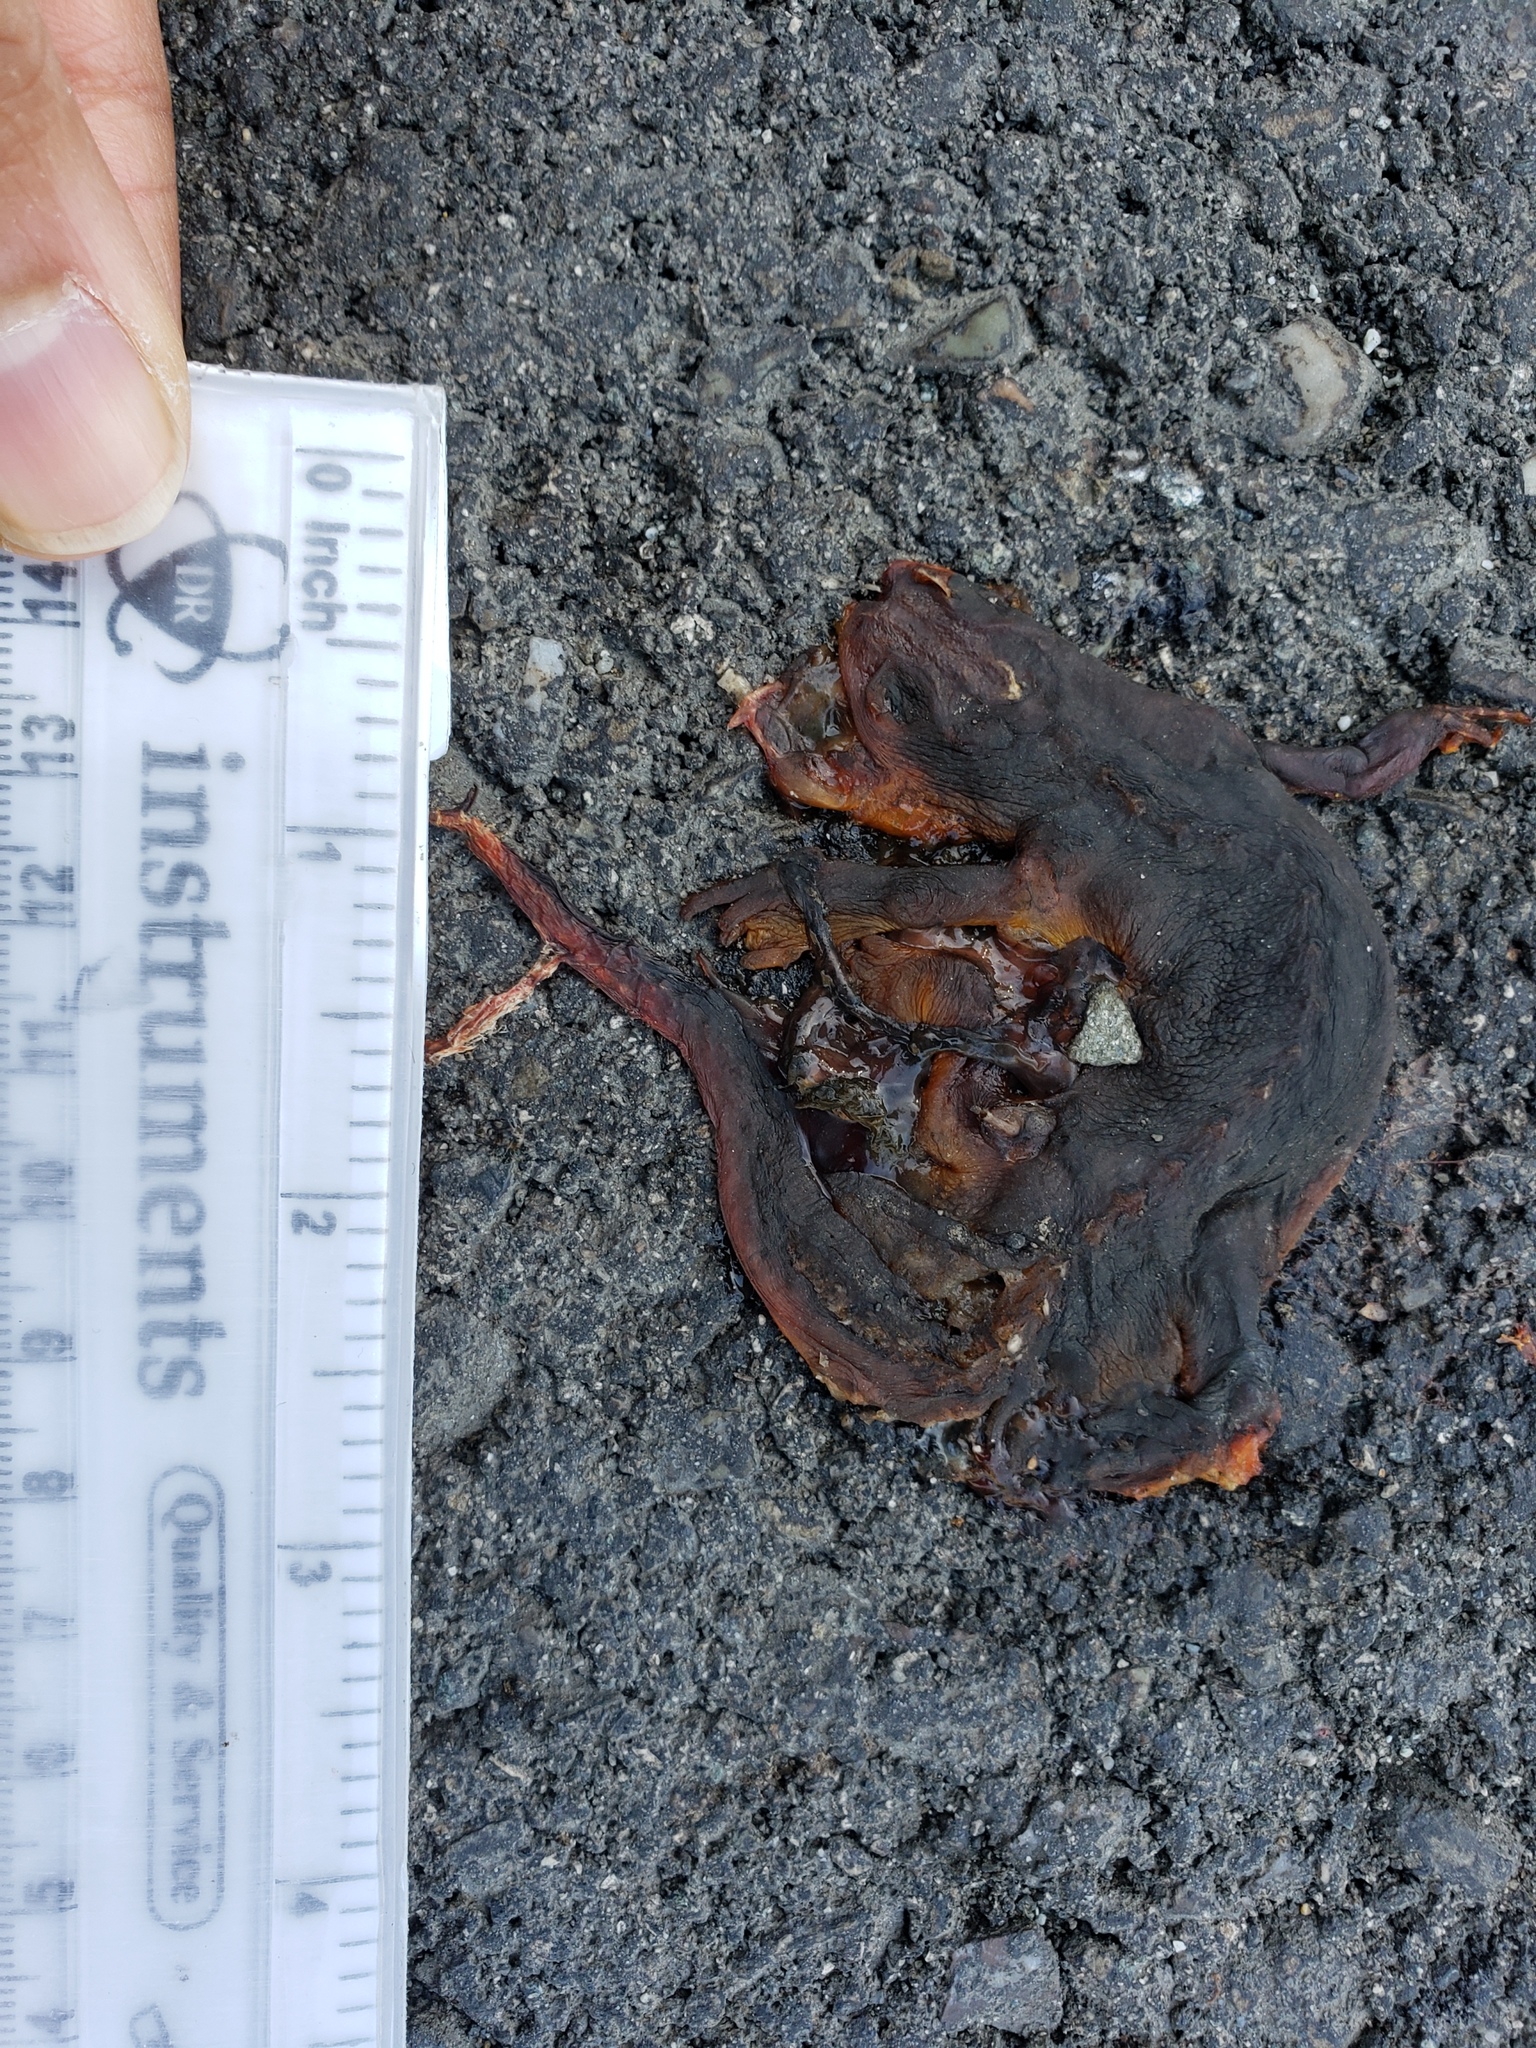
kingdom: Animalia
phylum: Chordata
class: Amphibia
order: Caudata
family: Salamandridae
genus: Taricha
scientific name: Taricha
